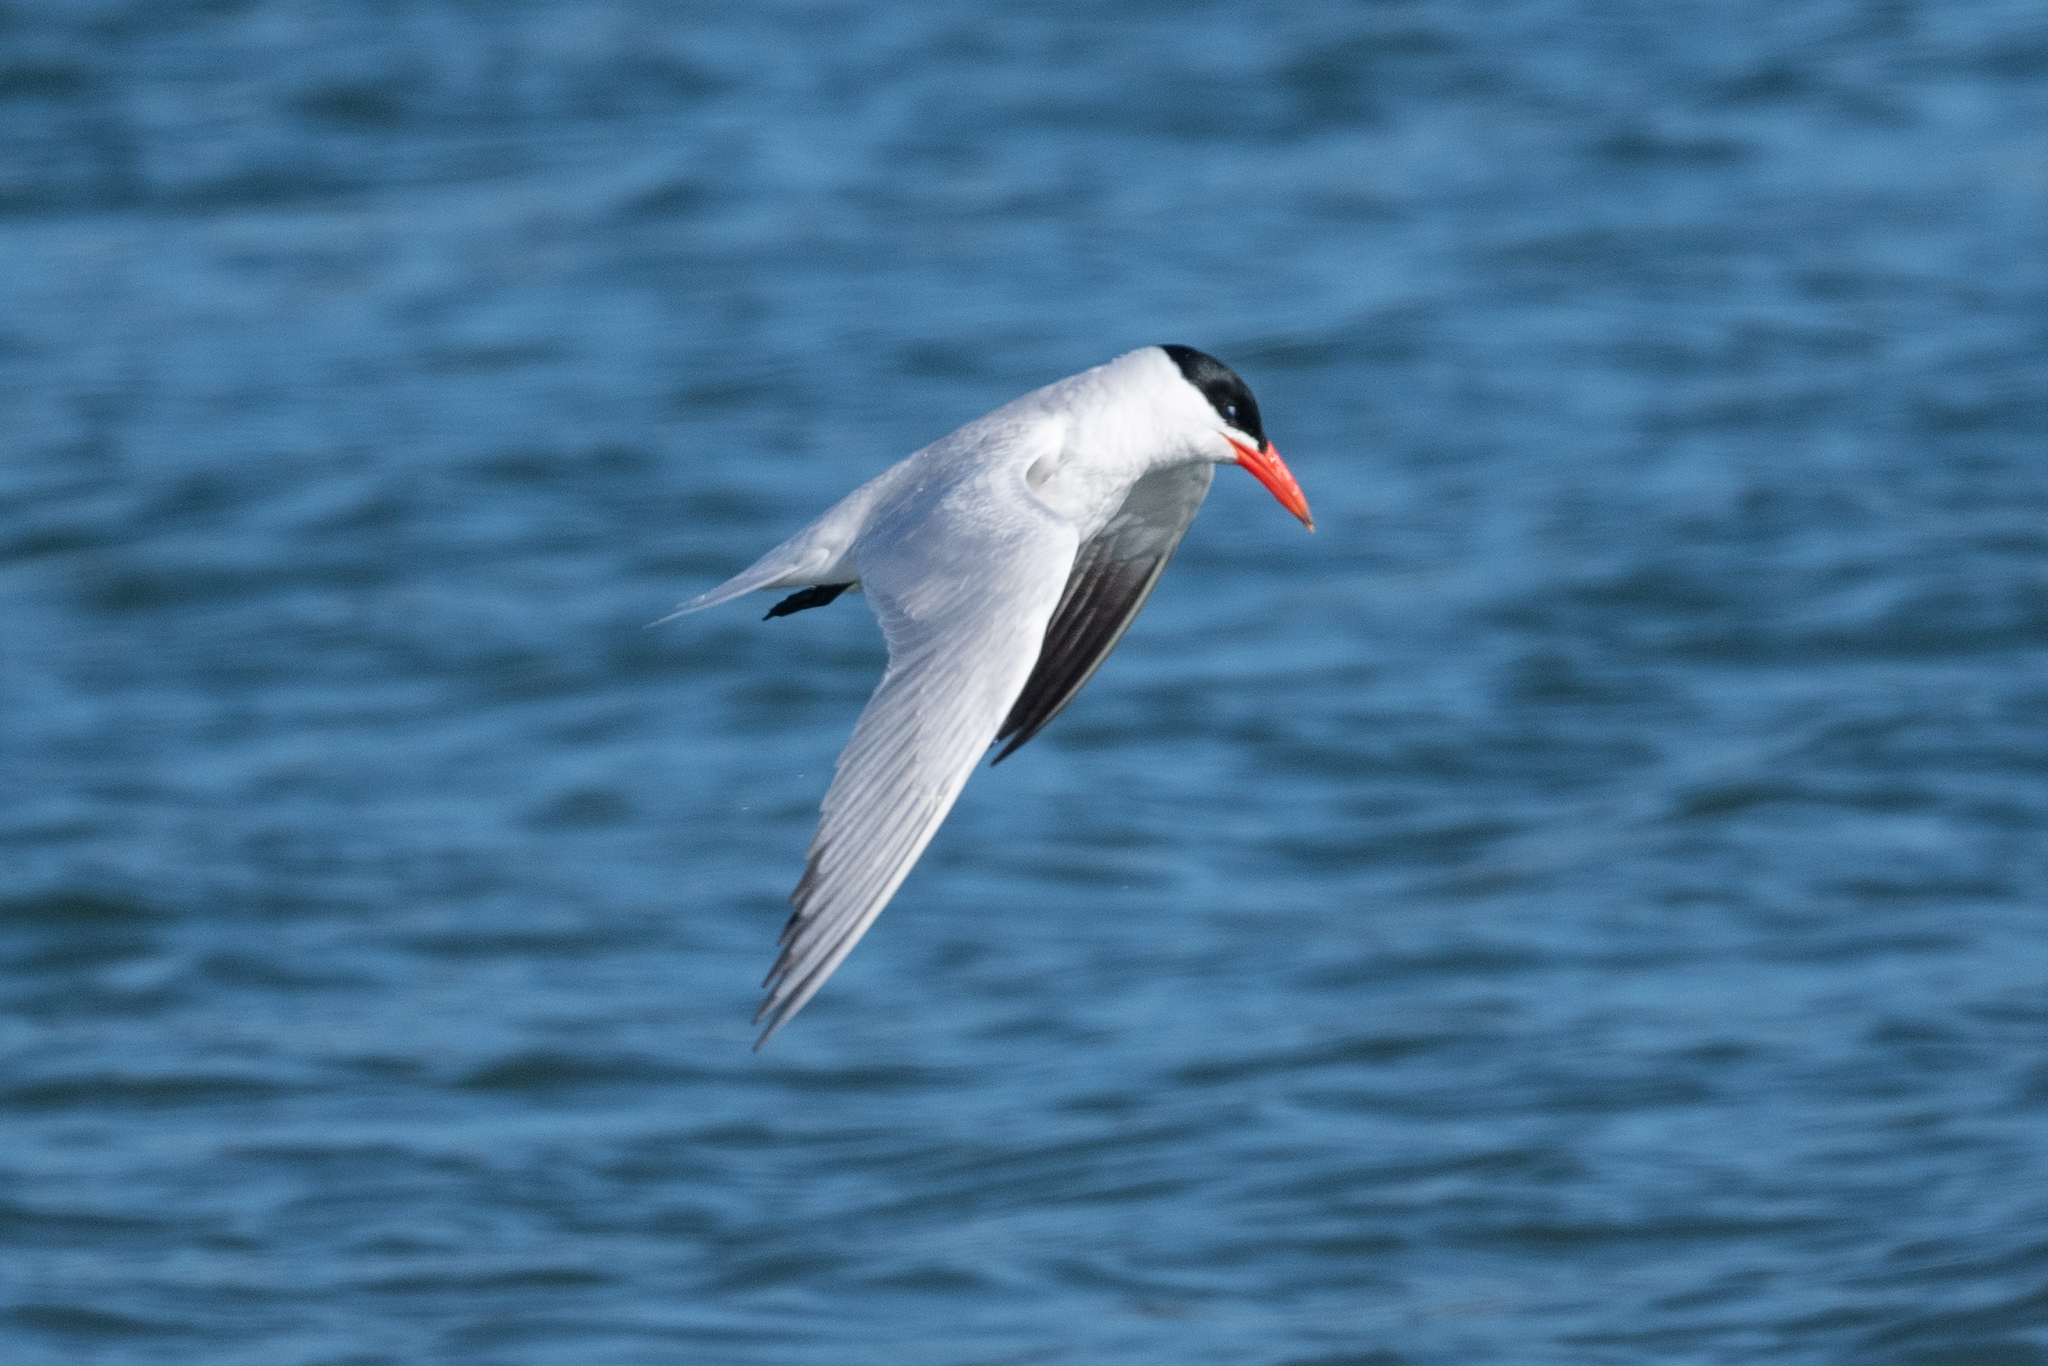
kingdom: Animalia
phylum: Chordata
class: Aves
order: Charadriiformes
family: Laridae
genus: Hydroprogne
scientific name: Hydroprogne caspia
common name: Caspian tern
